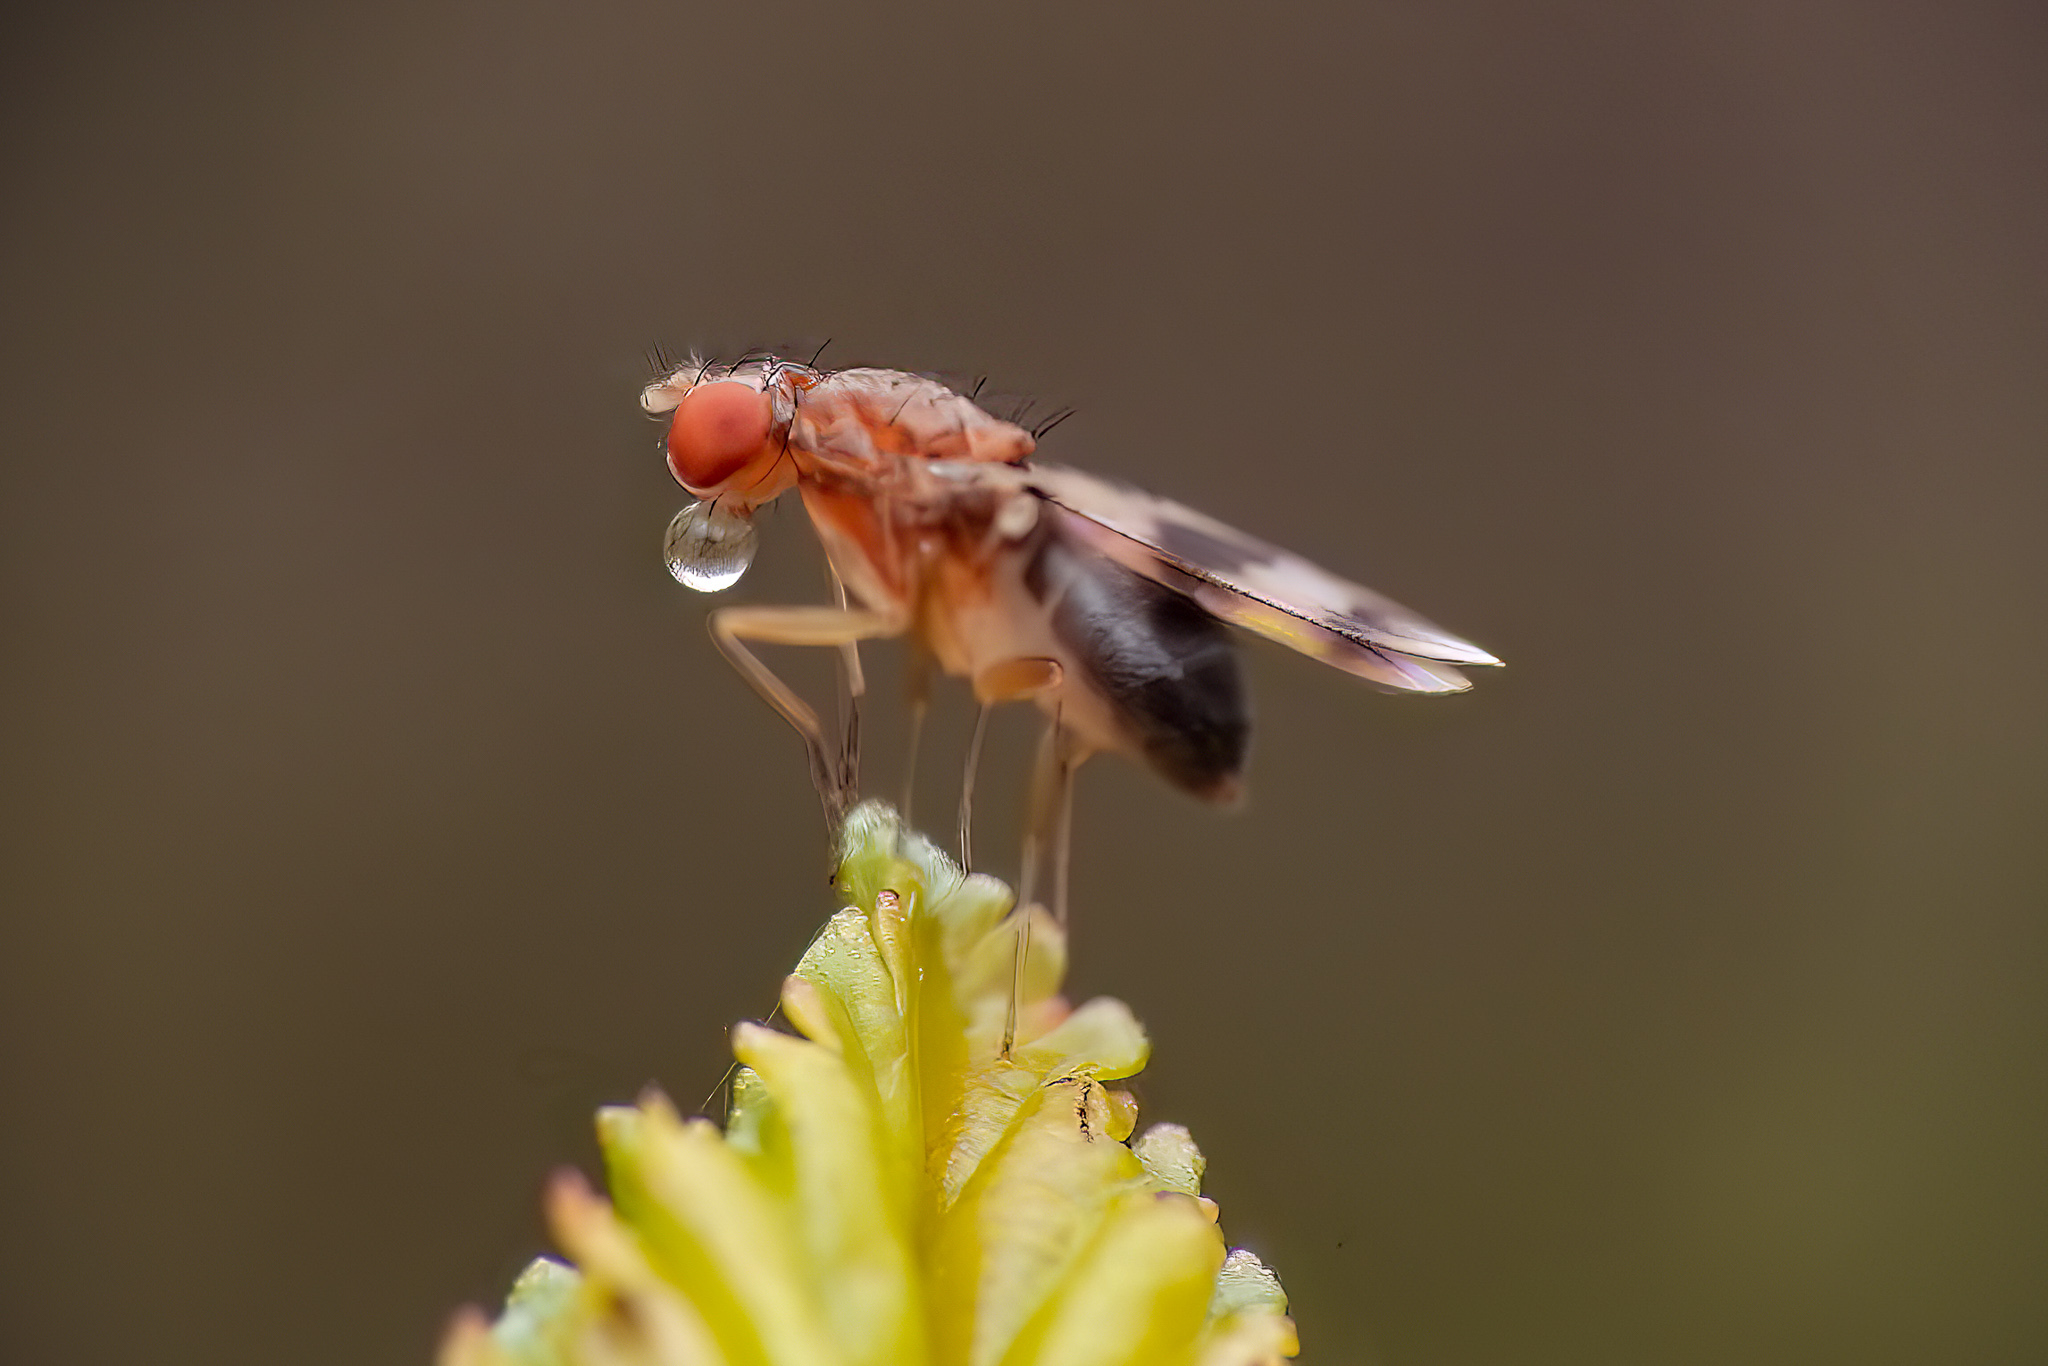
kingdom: Animalia
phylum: Arthropoda
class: Insecta
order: Diptera
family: Drosophilidae
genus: Chymomyza
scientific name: Chymomyza amoena
